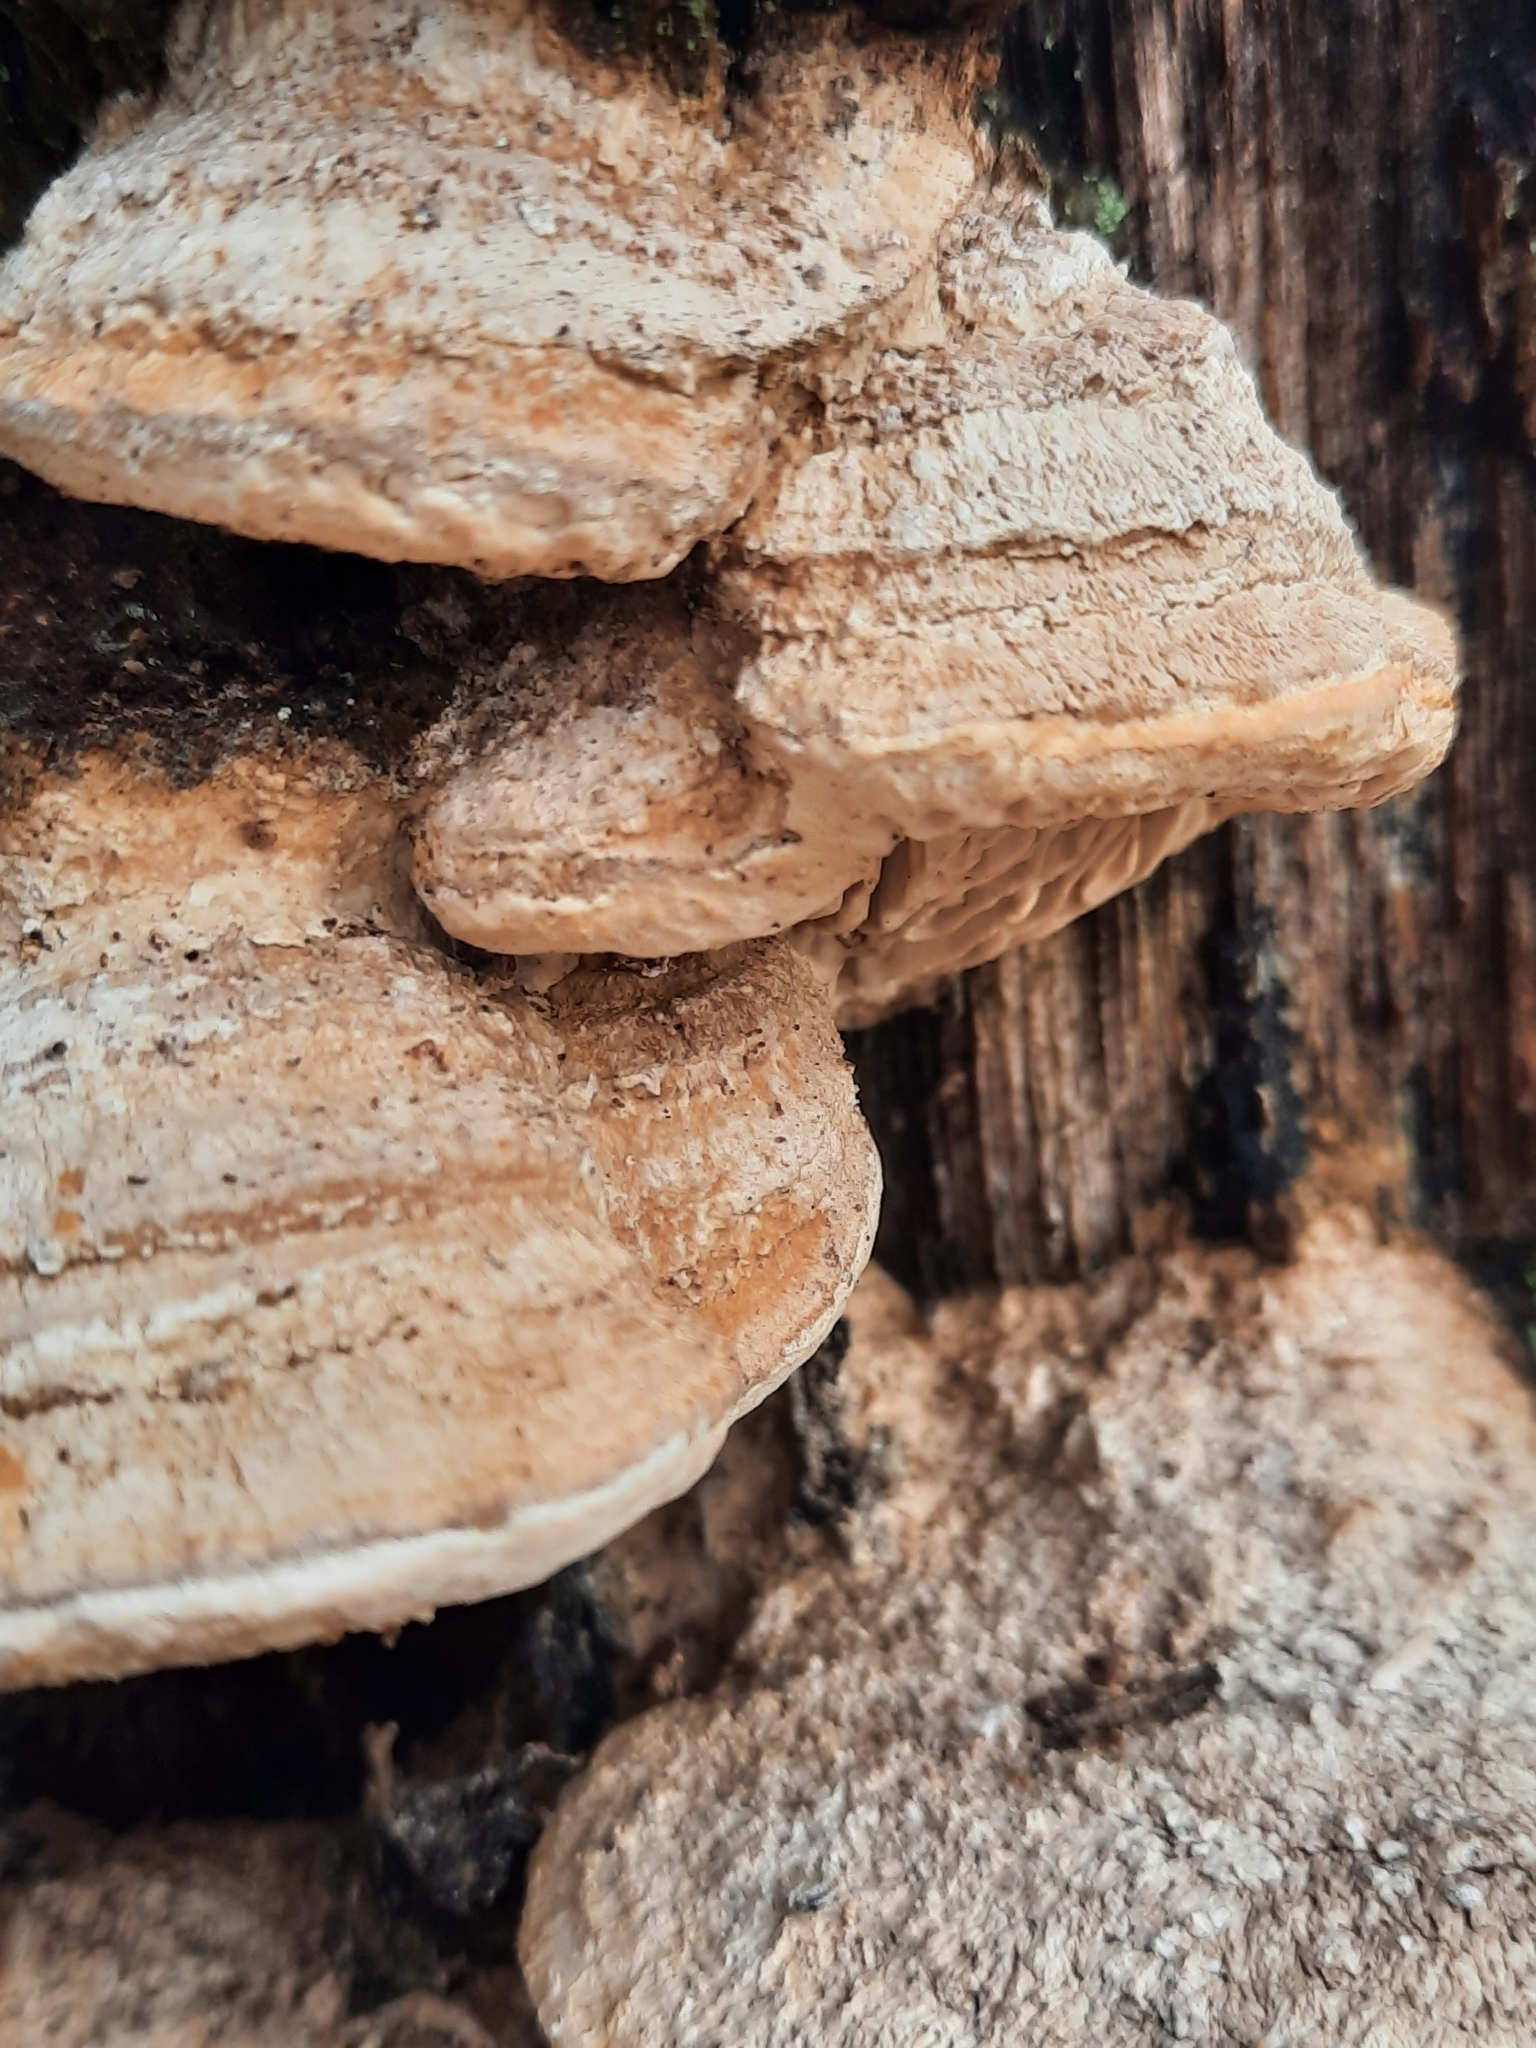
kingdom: Fungi
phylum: Basidiomycota
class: Agaricomycetes
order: Polyporales
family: Fomitopsidaceae
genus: Fomitopsis
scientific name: Fomitopsis
